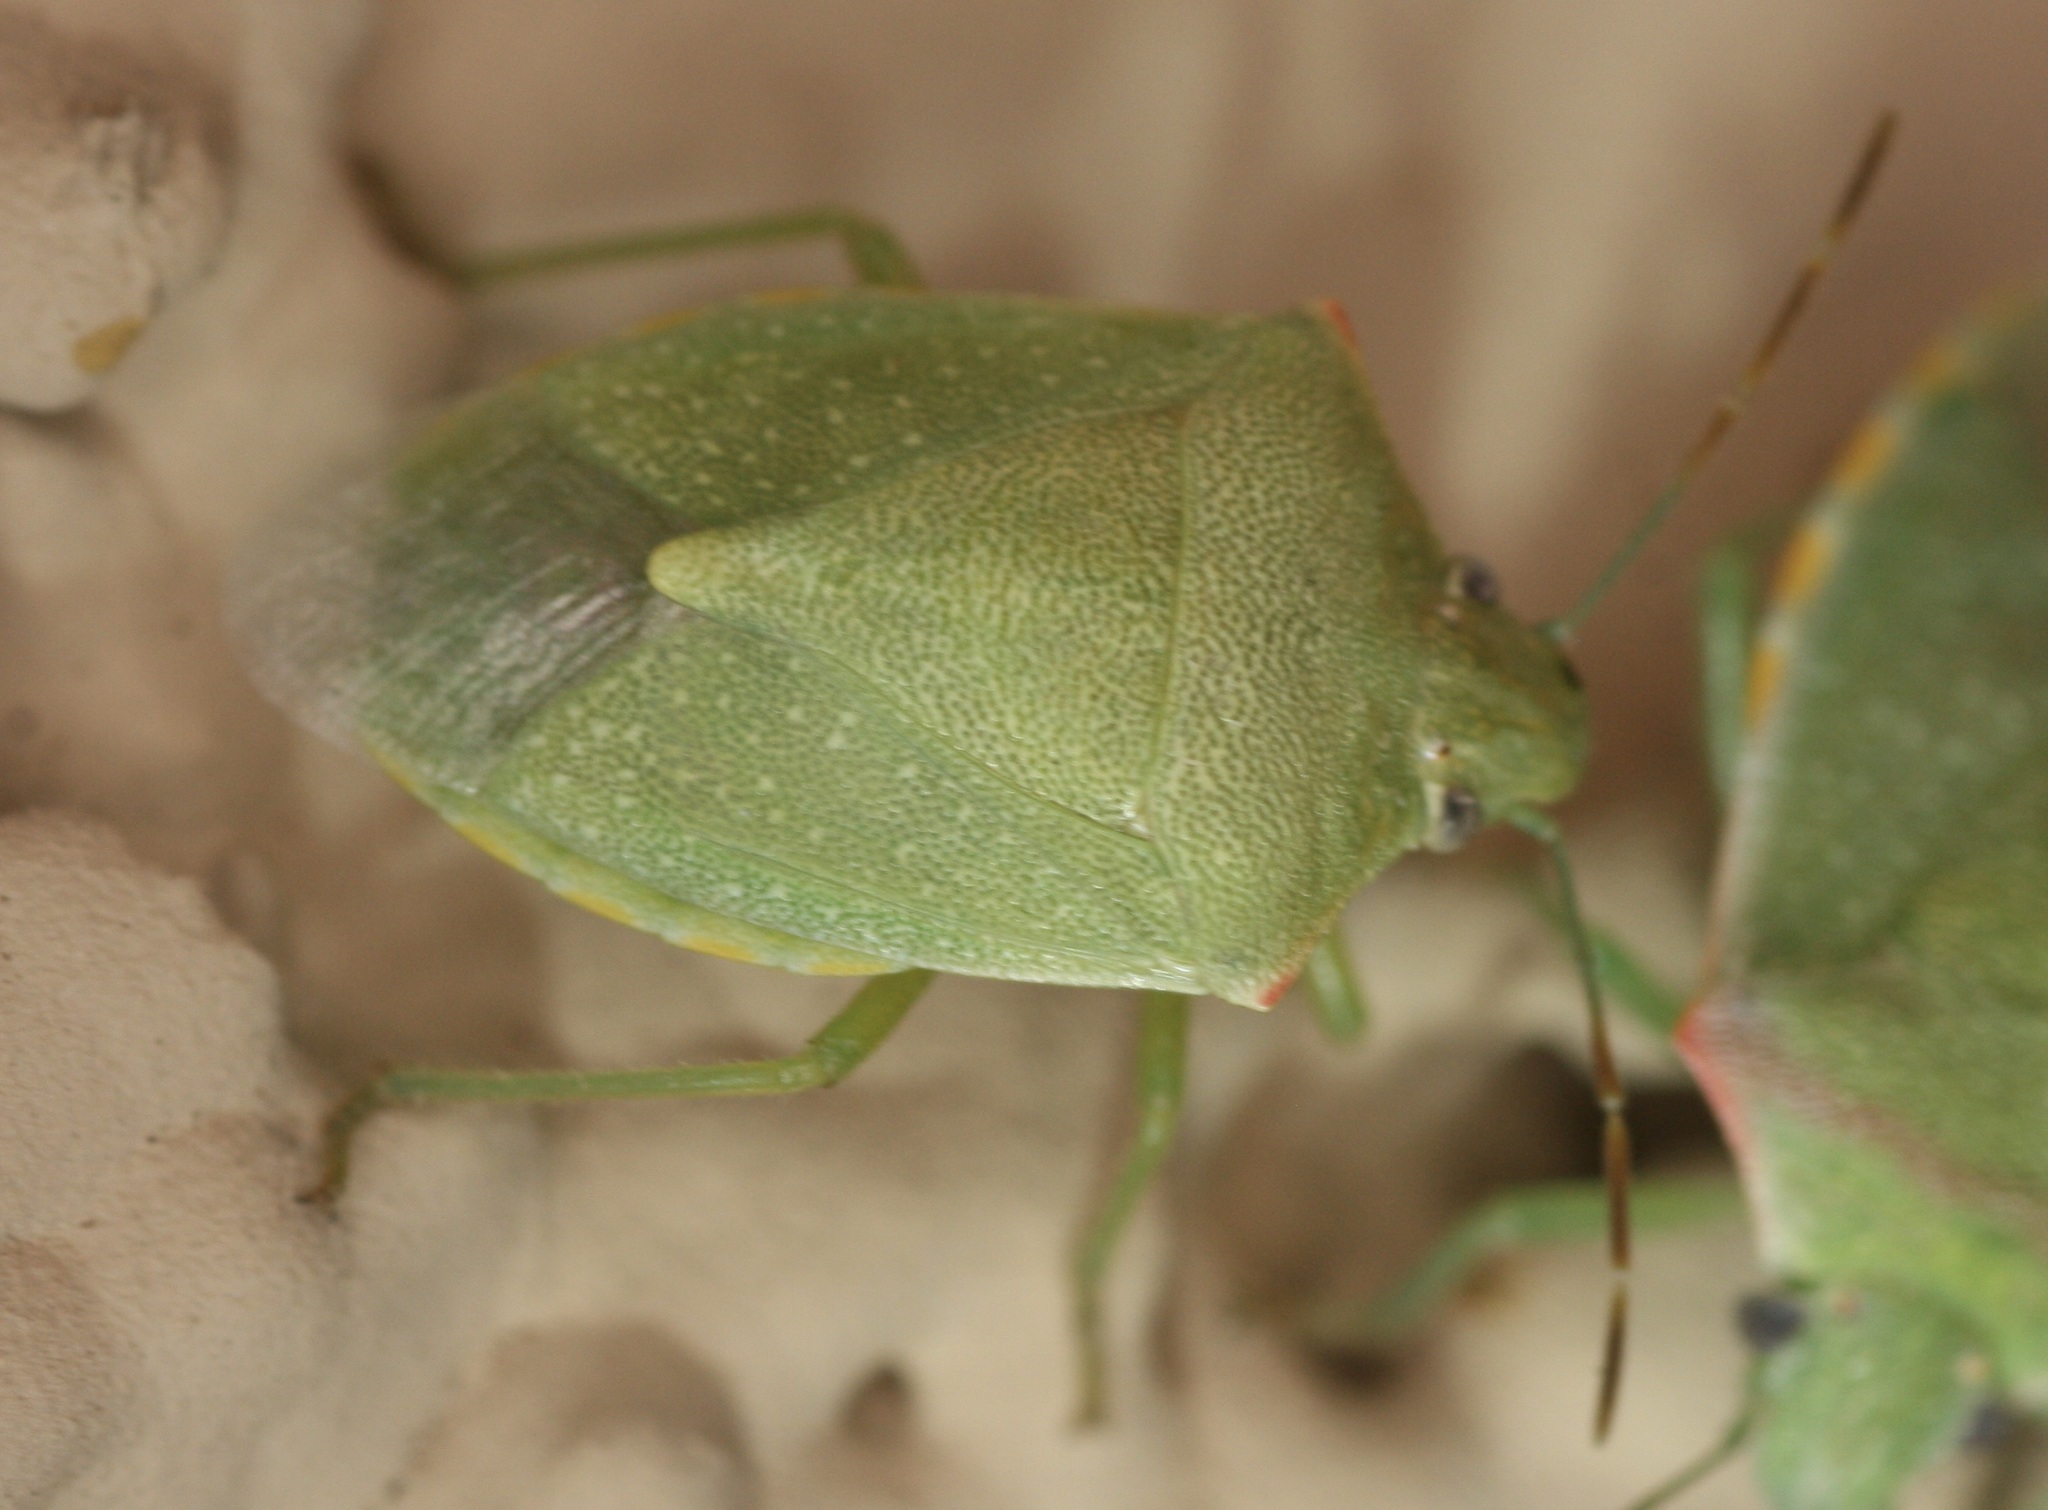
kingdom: Animalia
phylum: Arthropoda
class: Insecta
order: Hemiptera
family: Pentatomidae
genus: Thyanta
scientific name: Thyanta accerra
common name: Stink bug
